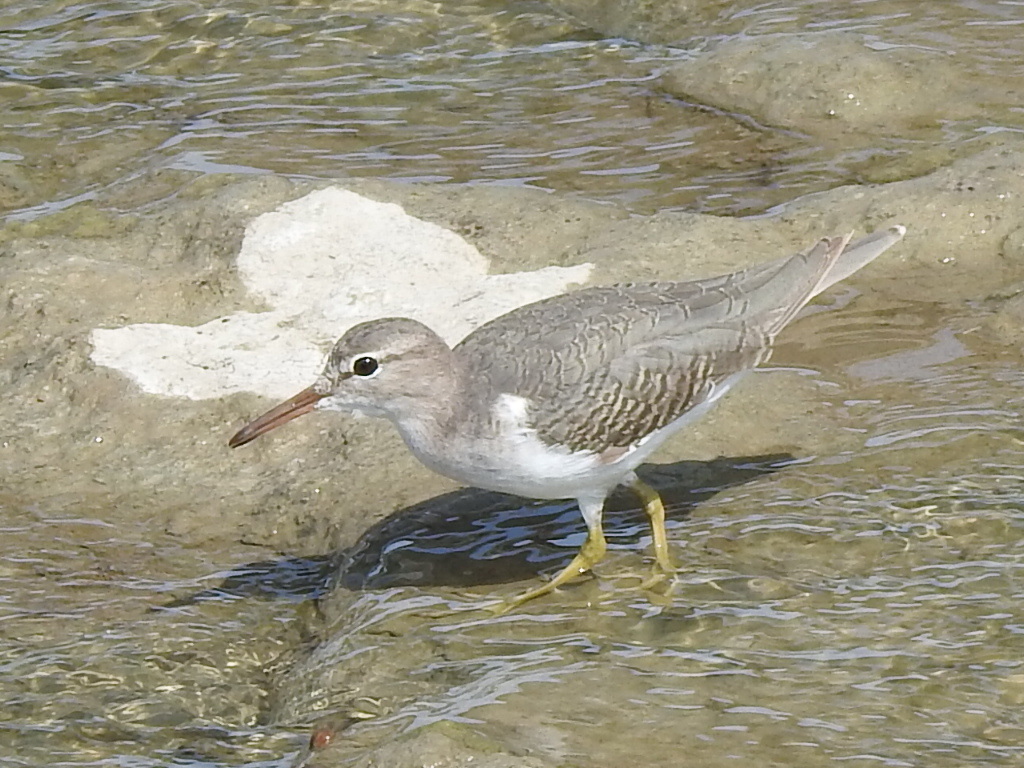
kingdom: Animalia
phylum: Chordata
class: Aves
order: Charadriiformes
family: Scolopacidae
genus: Actitis
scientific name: Actitis macularius
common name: Spotted sandpiper
